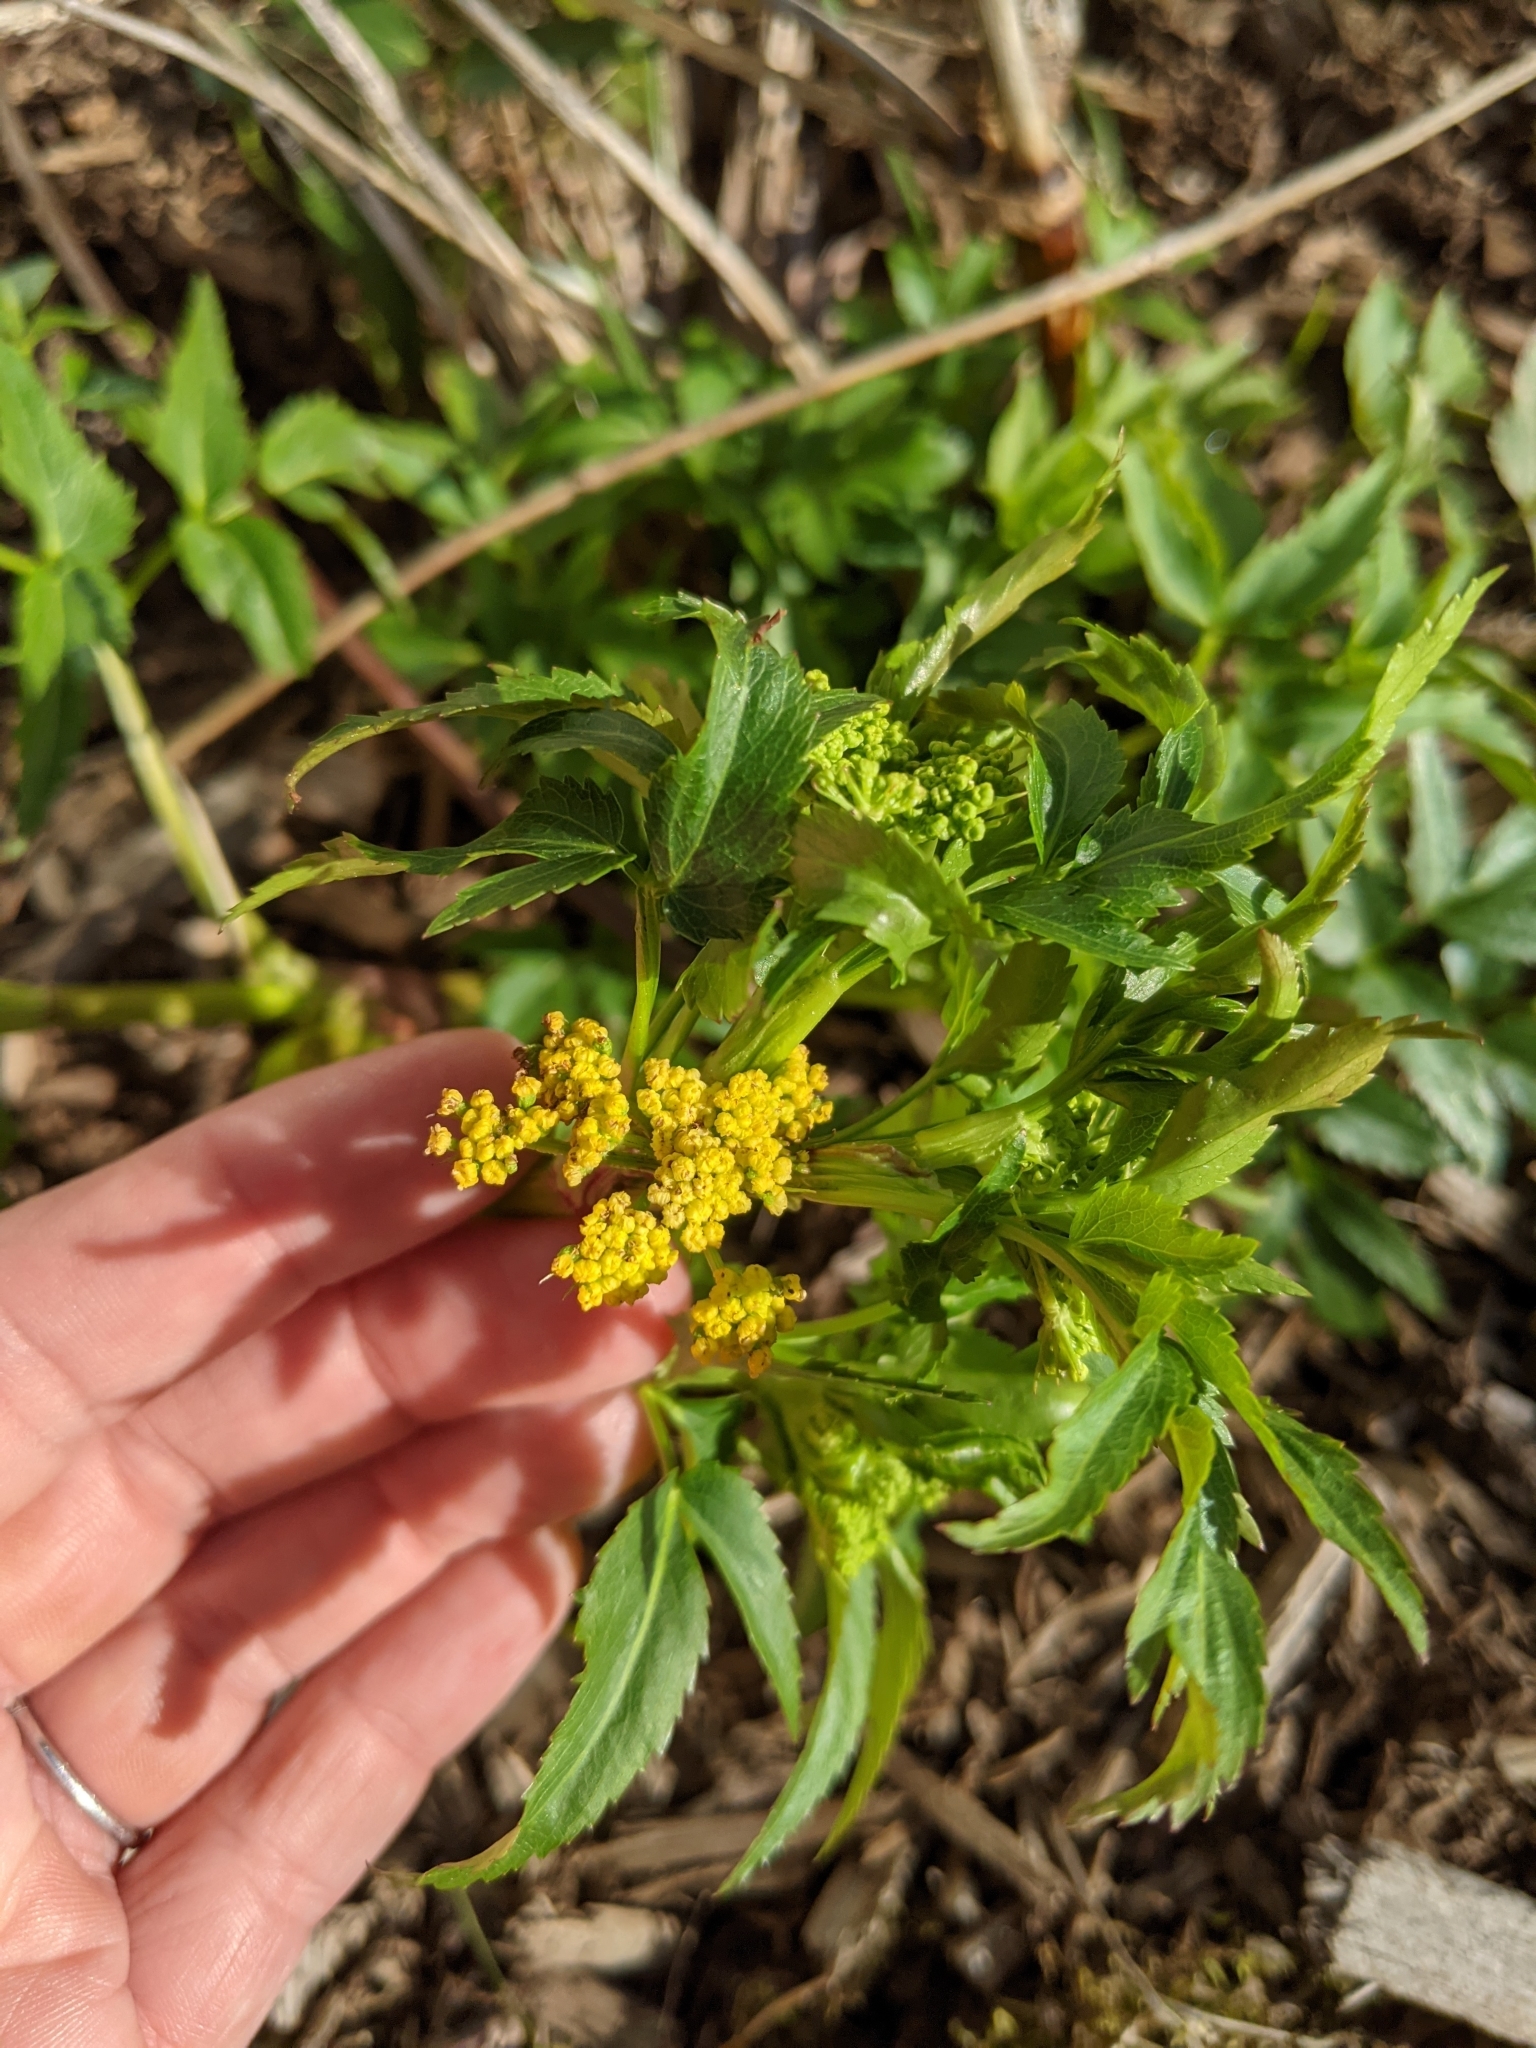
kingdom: Plantae
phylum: Tracheophyta
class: Magnoliopsida
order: Apiales
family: Apiaceae
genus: Zizia
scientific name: Zizia aurea
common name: Golden alexanders
